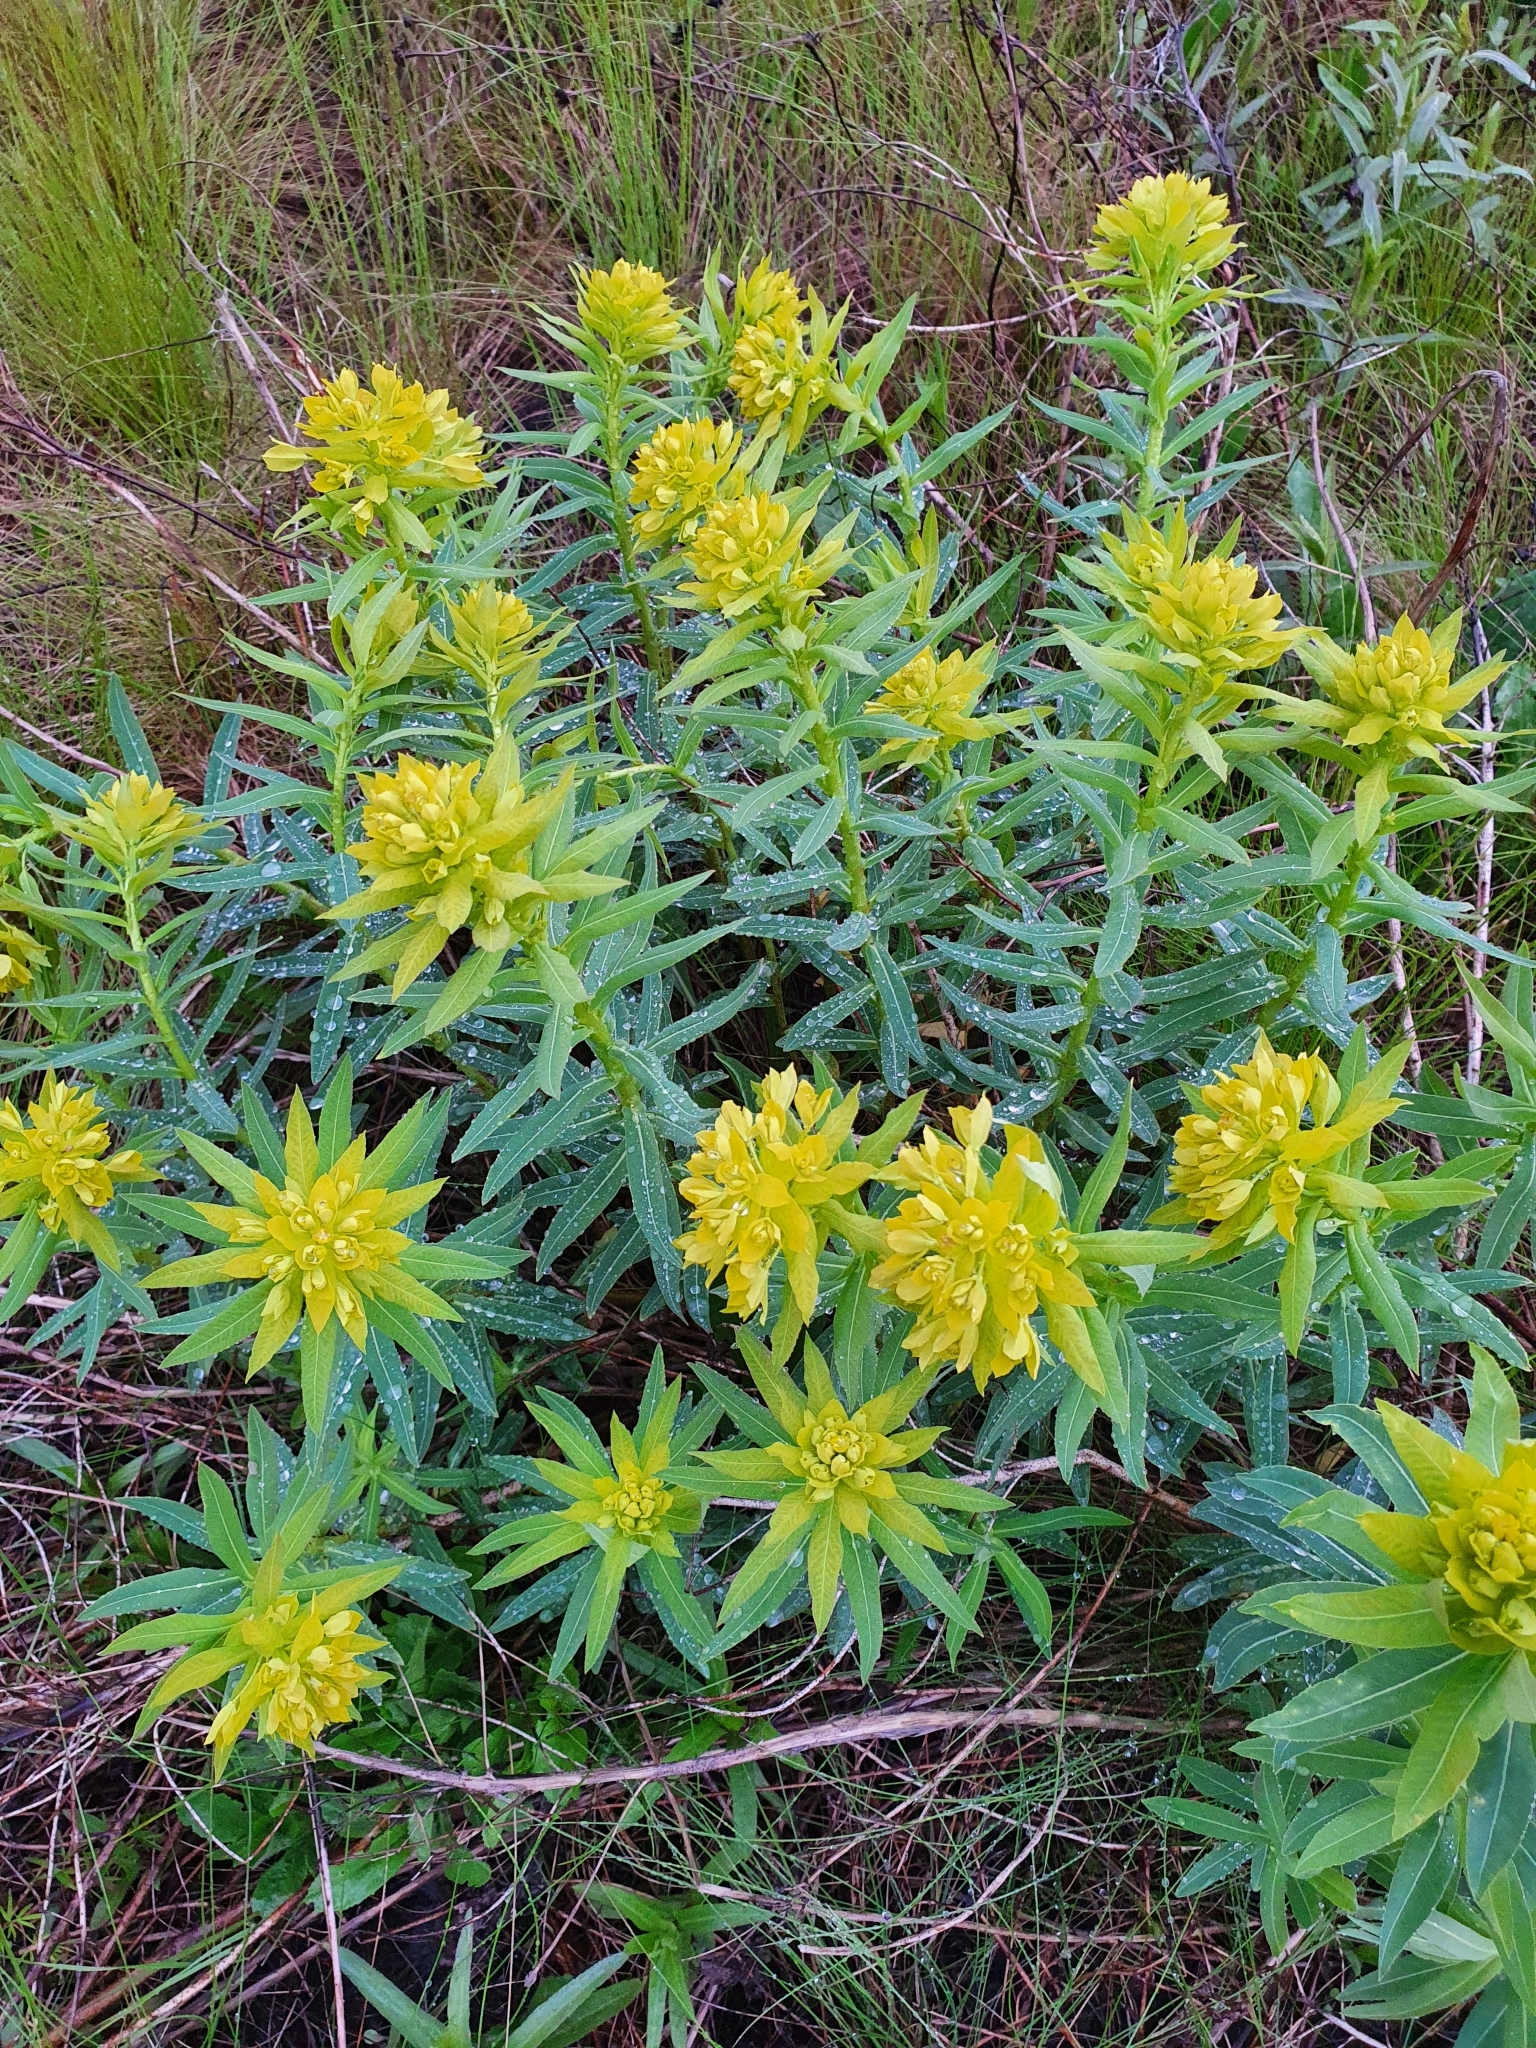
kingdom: Plantae
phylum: Tracheophyta
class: Magnoliopsida
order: Malpighiales
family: Euphorbiaceae
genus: Euphorbia
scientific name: Euphorbia semivillosa
